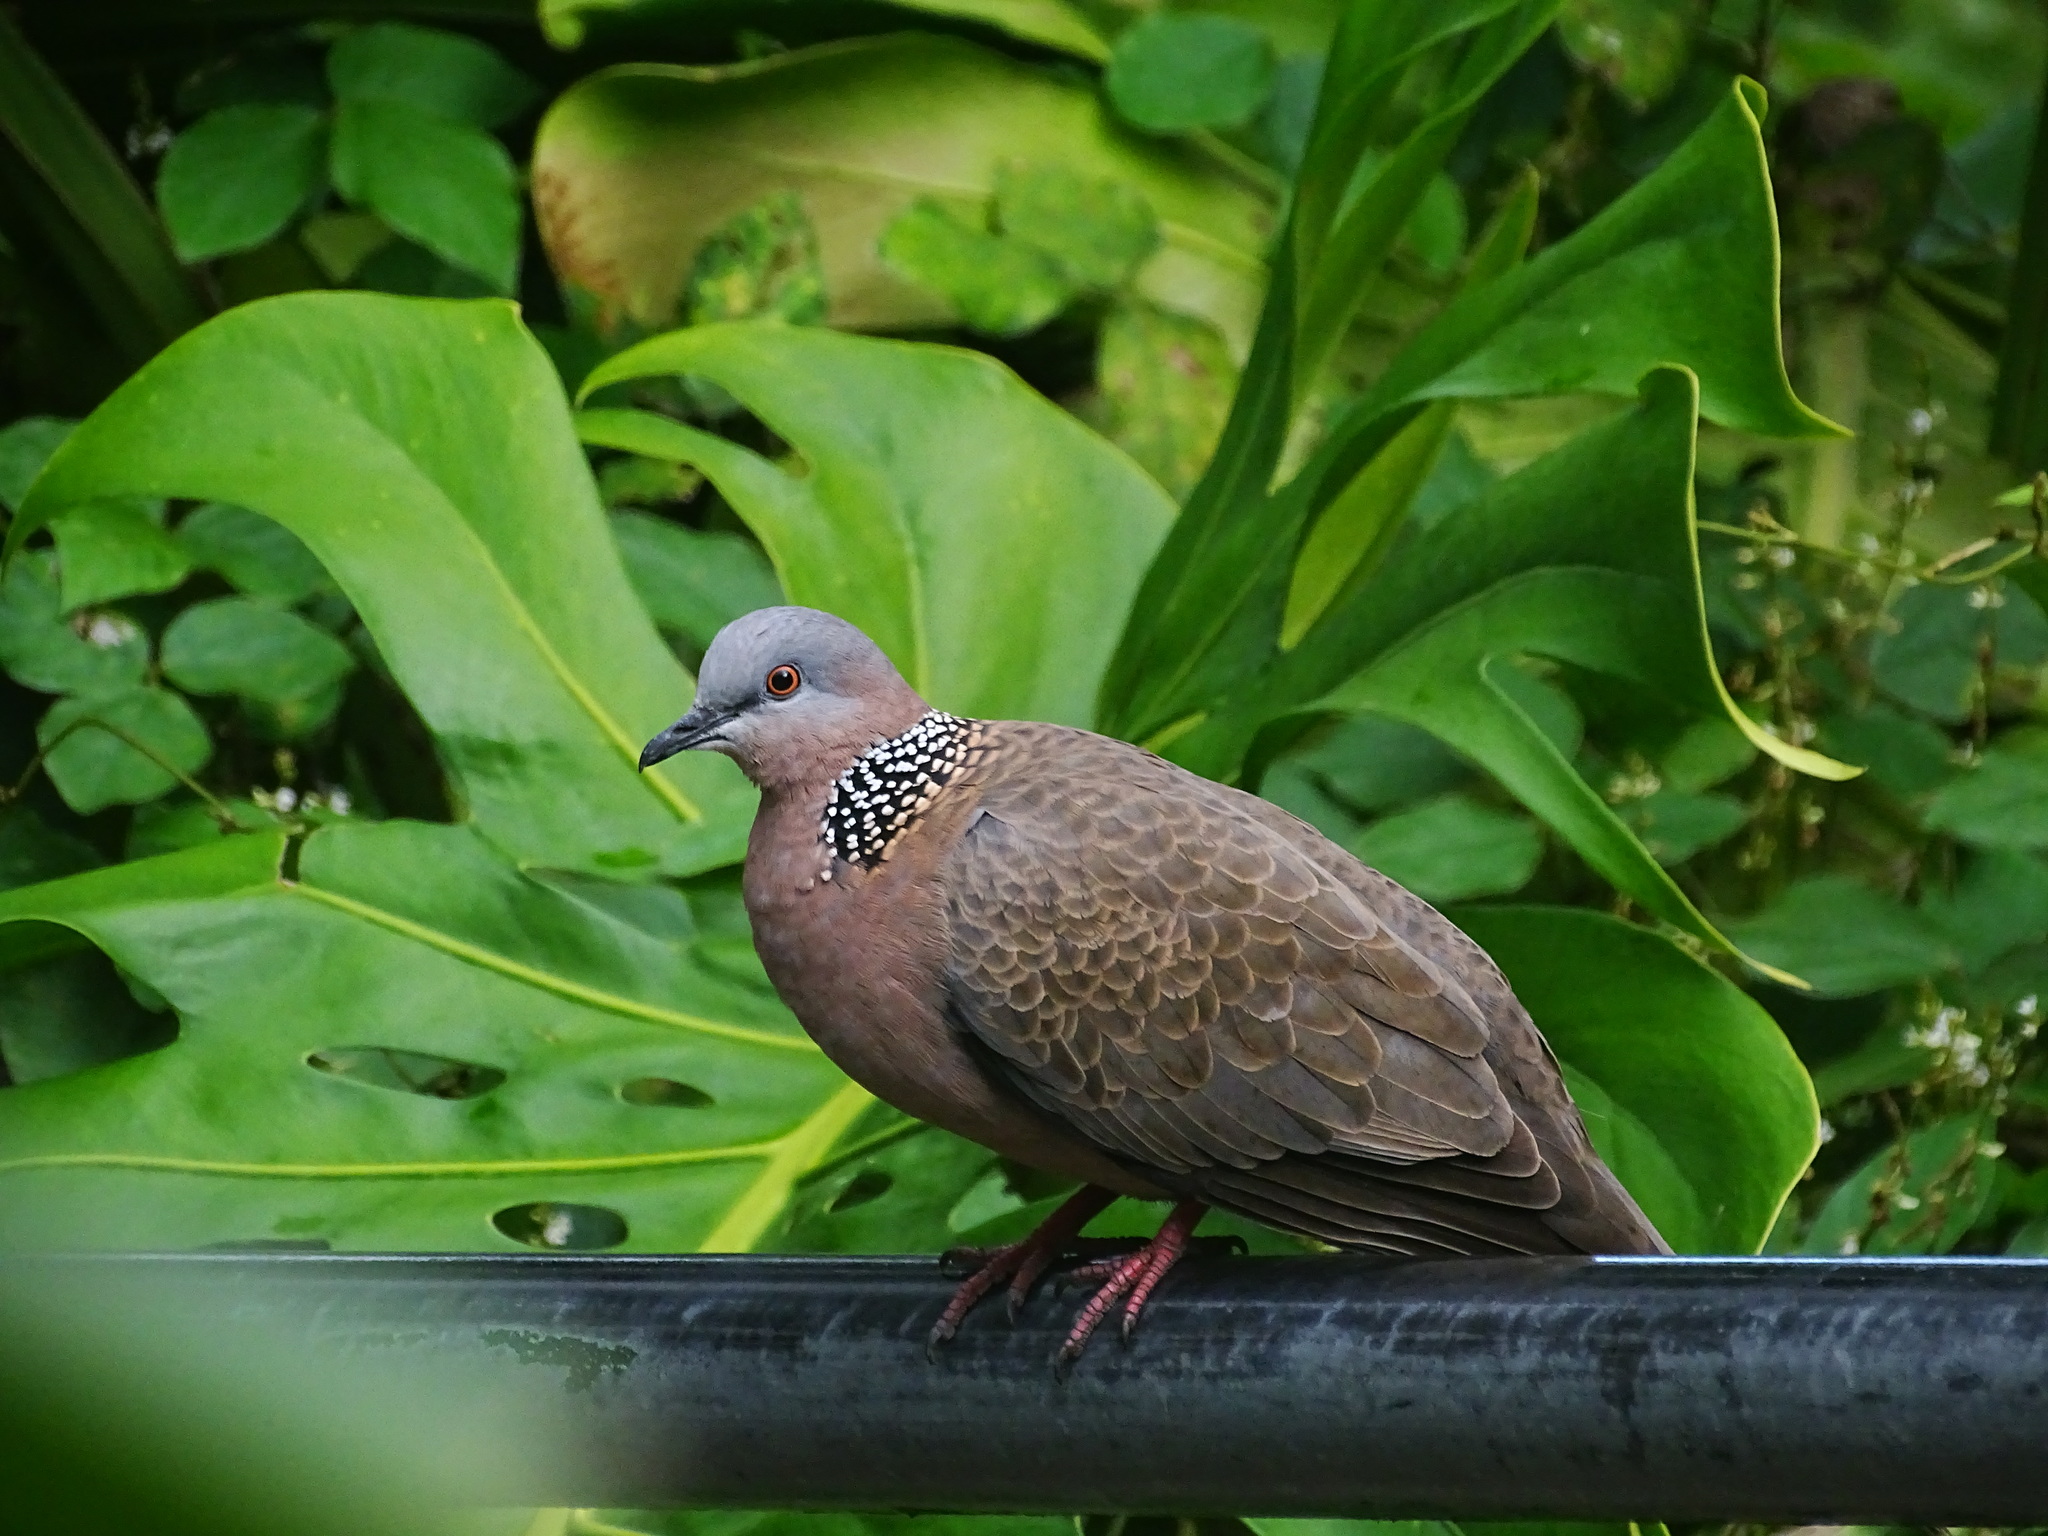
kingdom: Animalia
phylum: Chordata
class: Aves
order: Columbiformes
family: Columbidae
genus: Spilopelia
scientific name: Spilopelia chinensis
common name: Spotted dove
